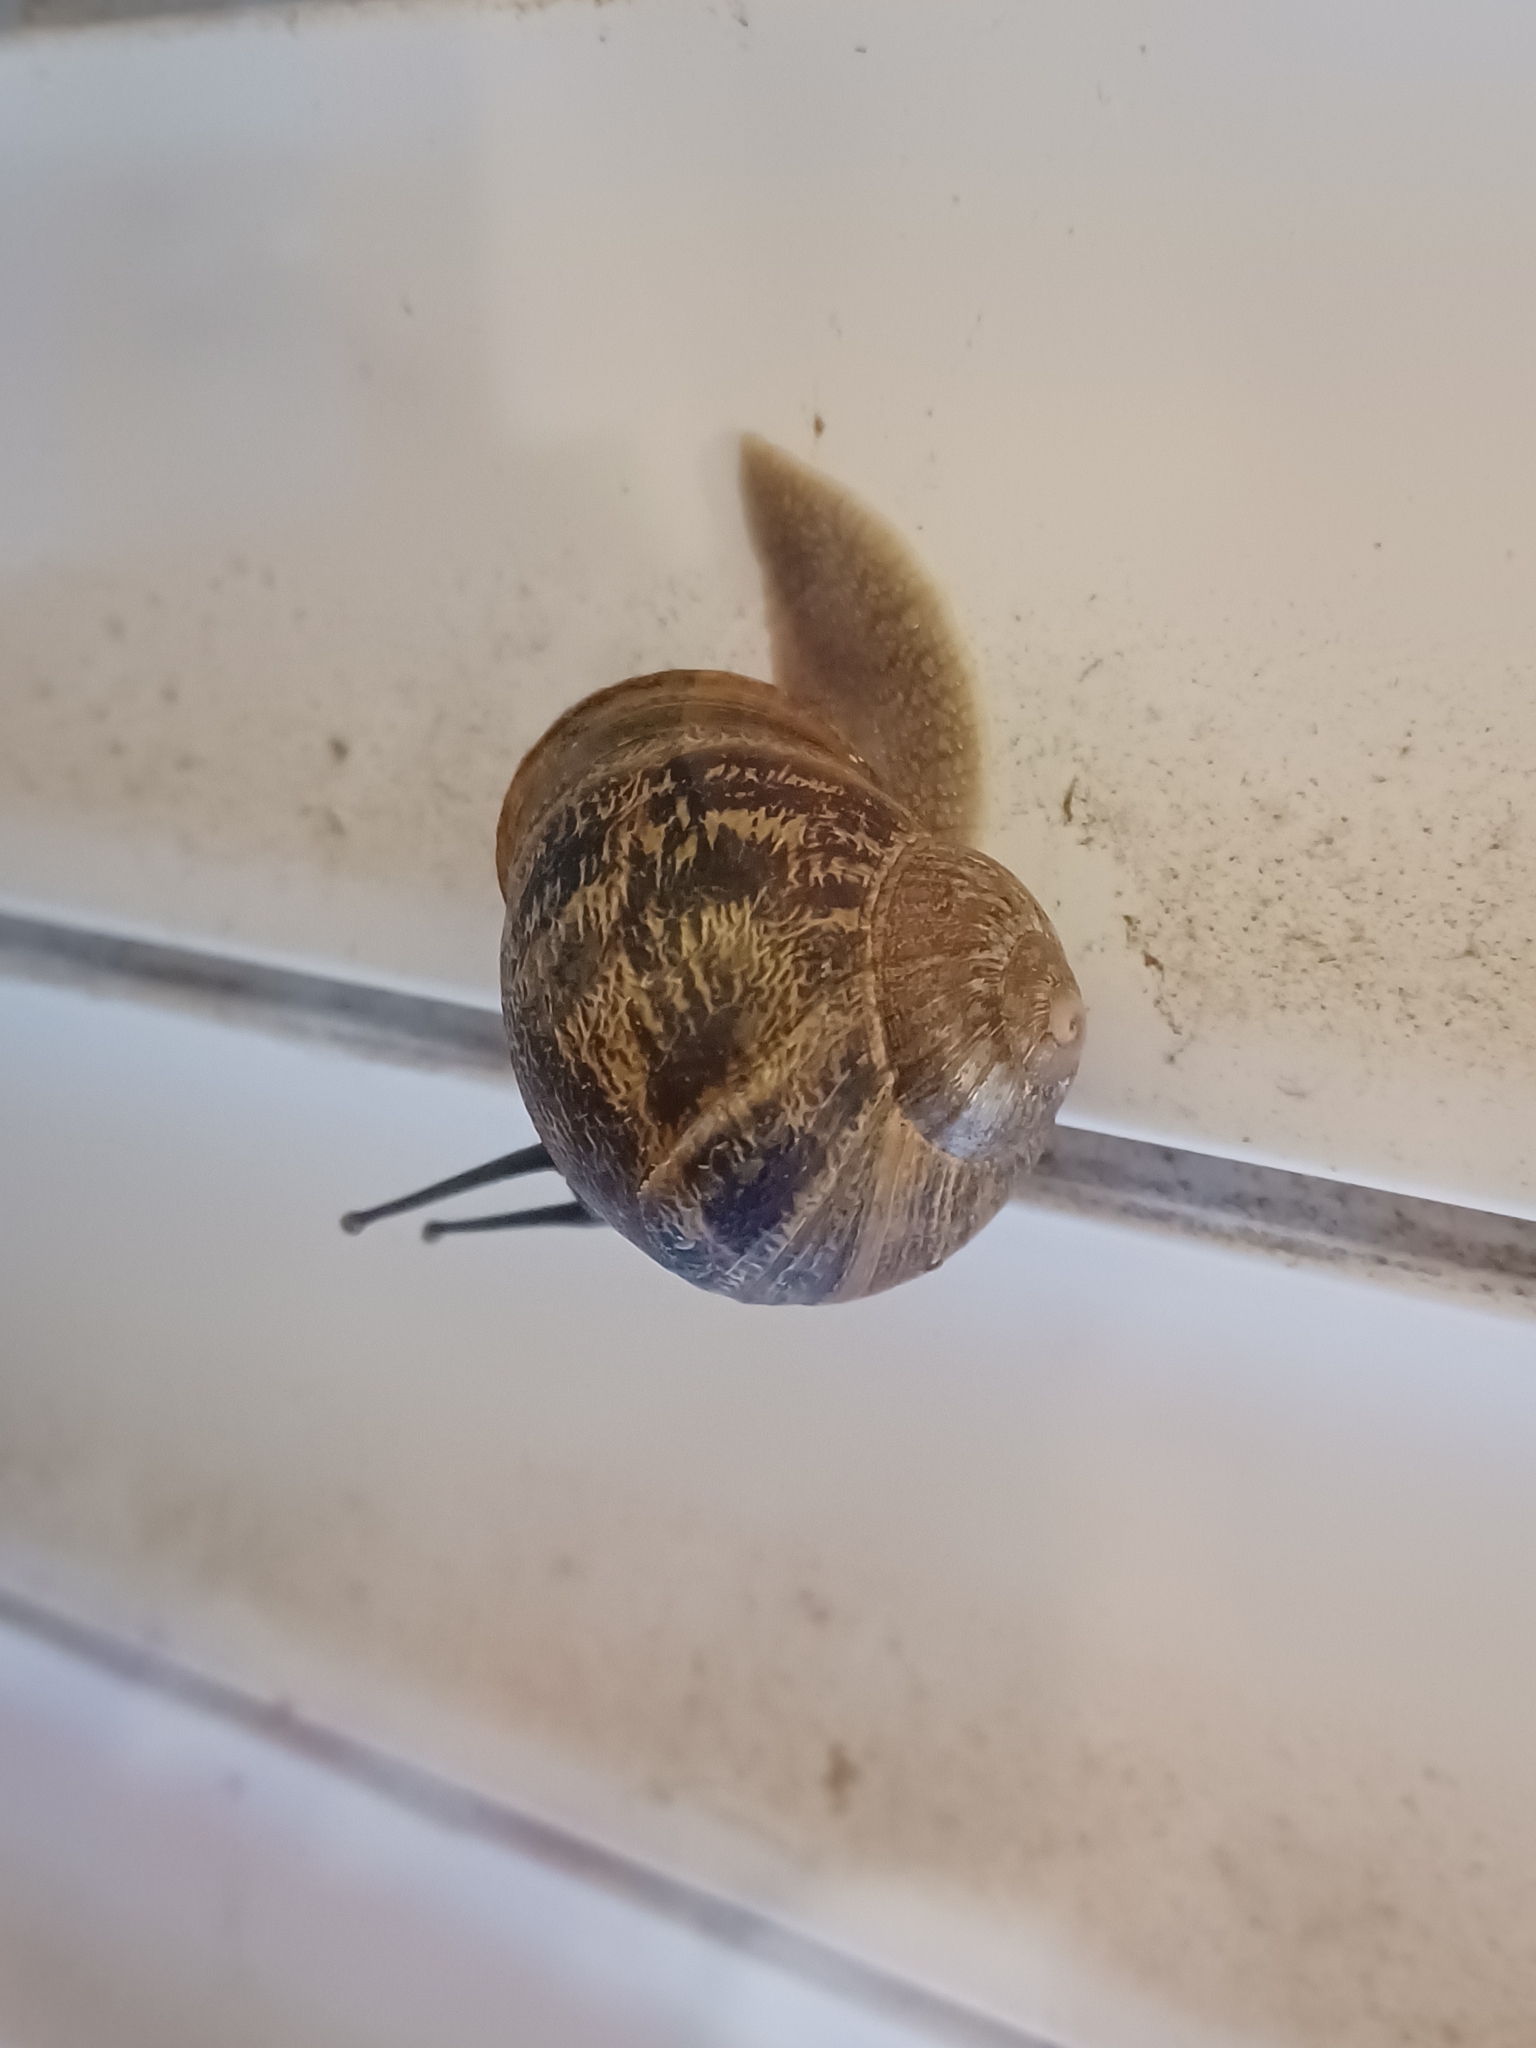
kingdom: Animalia
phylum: Mollusca
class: Gastropoda
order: Stylommatophora
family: Helicidae
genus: Cornu
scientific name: Cornu aspersum
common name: Brown garden snail
